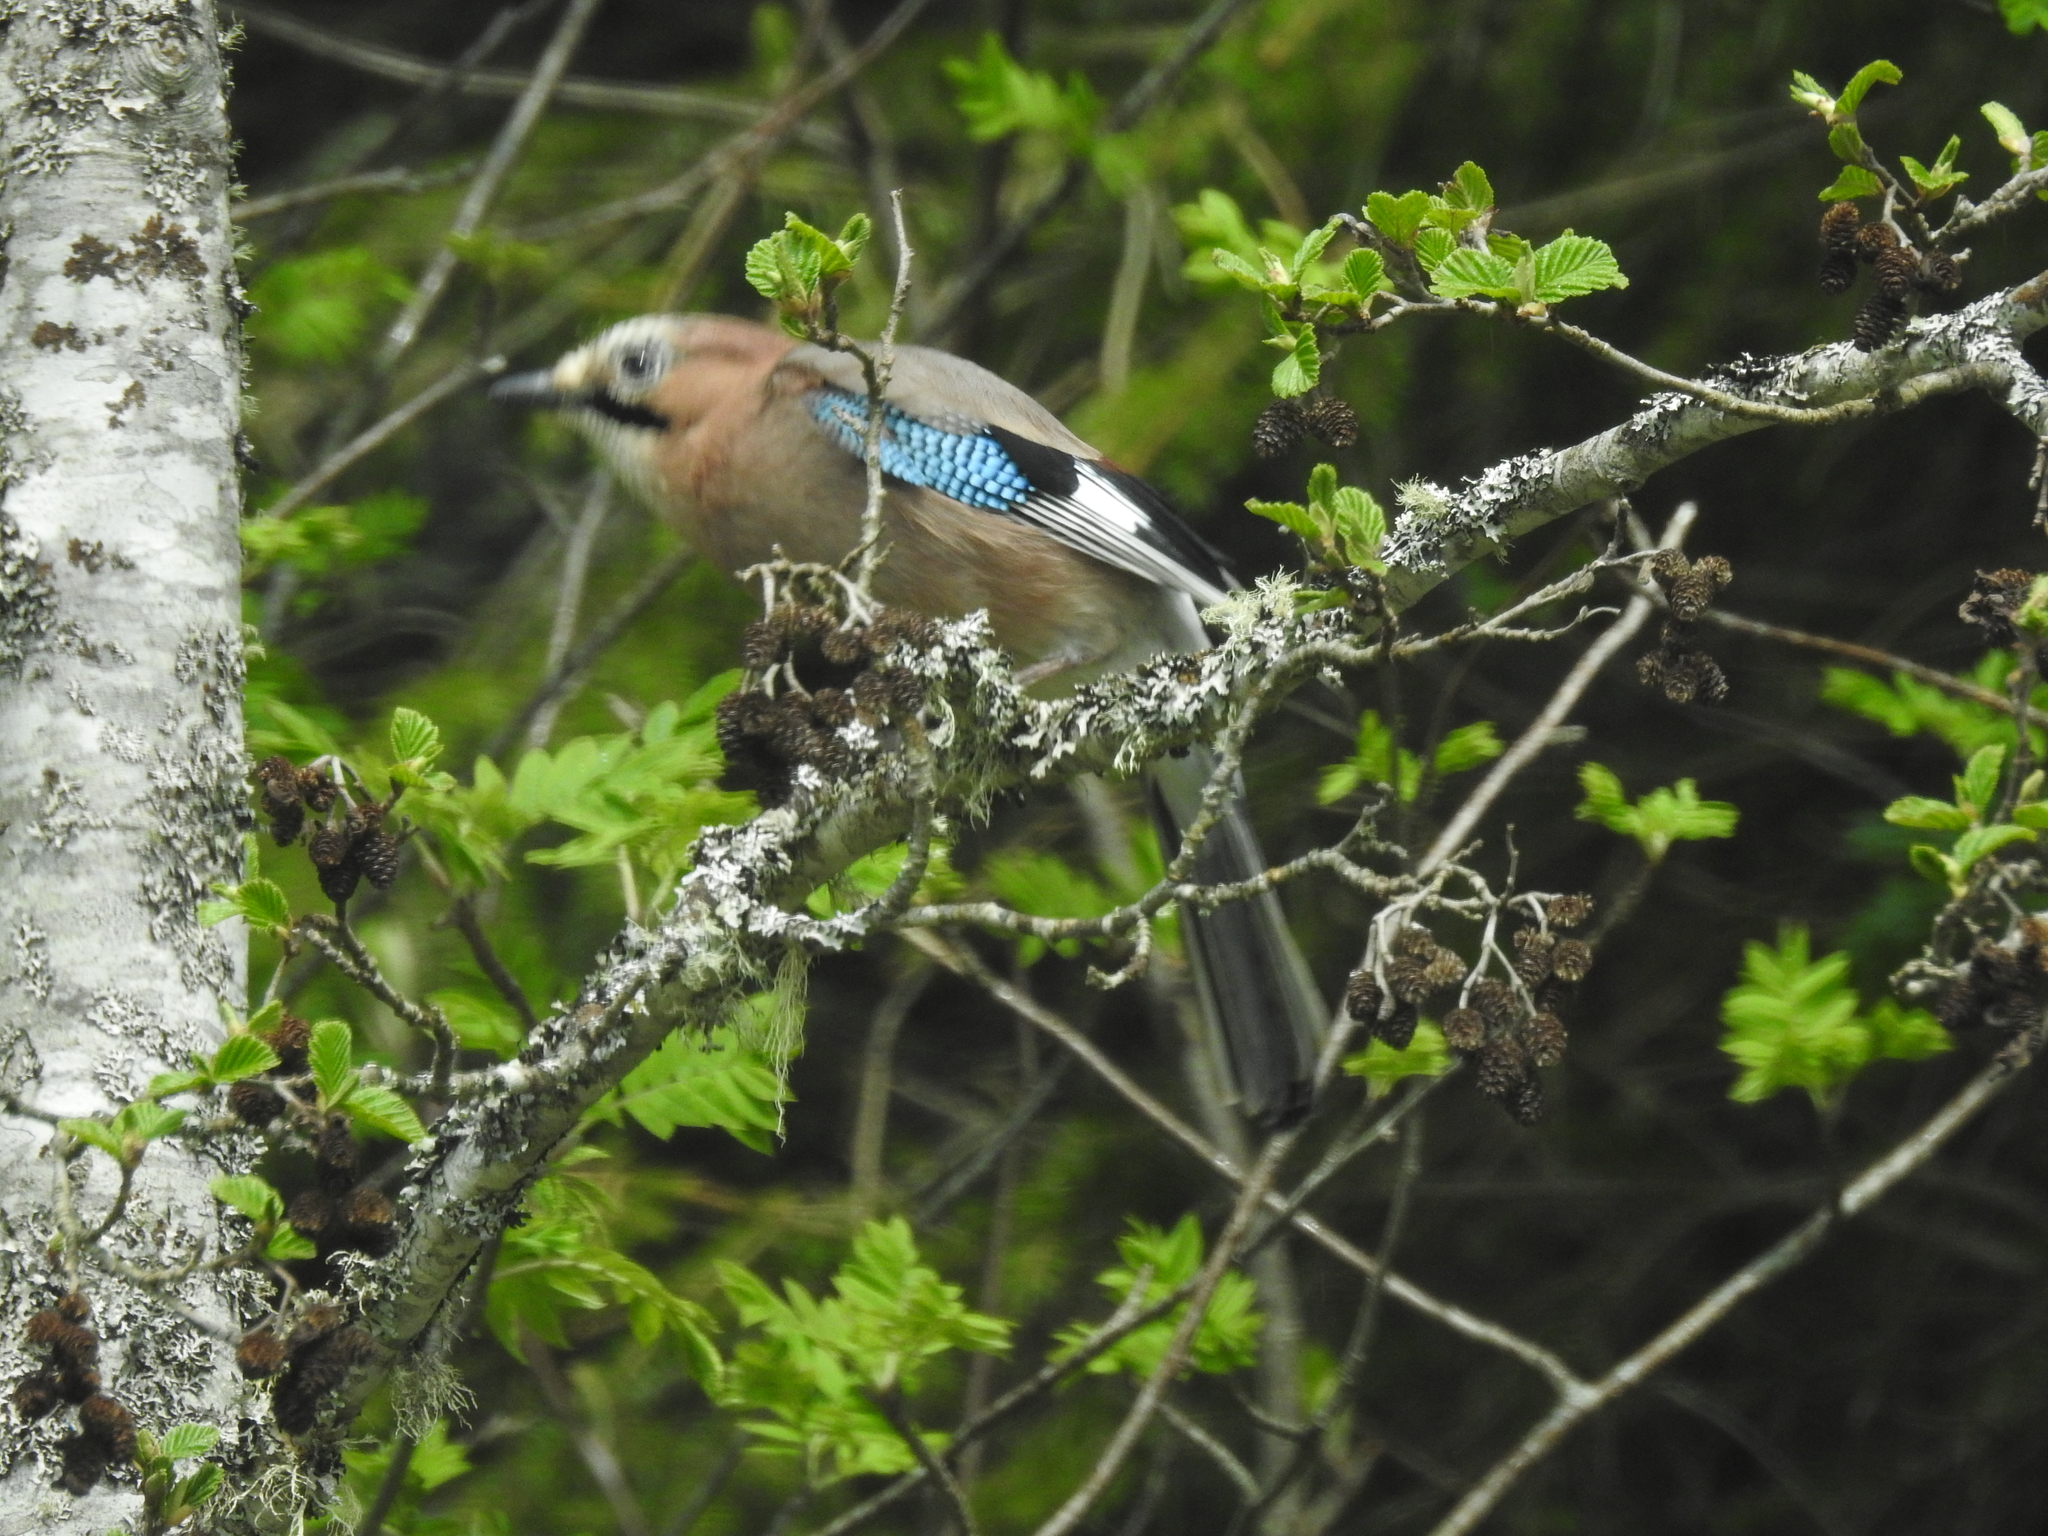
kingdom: Animalia
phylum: Chordata
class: Aves
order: Passeriformes
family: Corvidae
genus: Garrulus
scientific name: Garrulus glandarius
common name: Eurasian jay
